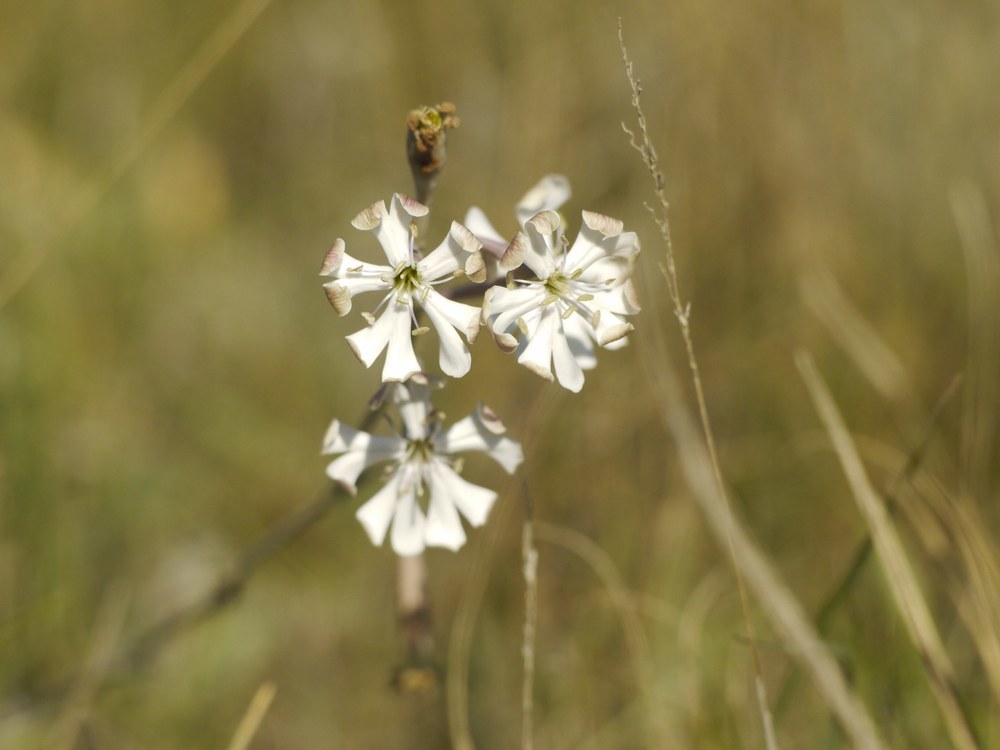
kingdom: Plantae
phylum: Tracheophyta
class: Magnoliopsida
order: Caryophyllales
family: Caryophyllaceae
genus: Silene
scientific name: Silene bupleuroides
